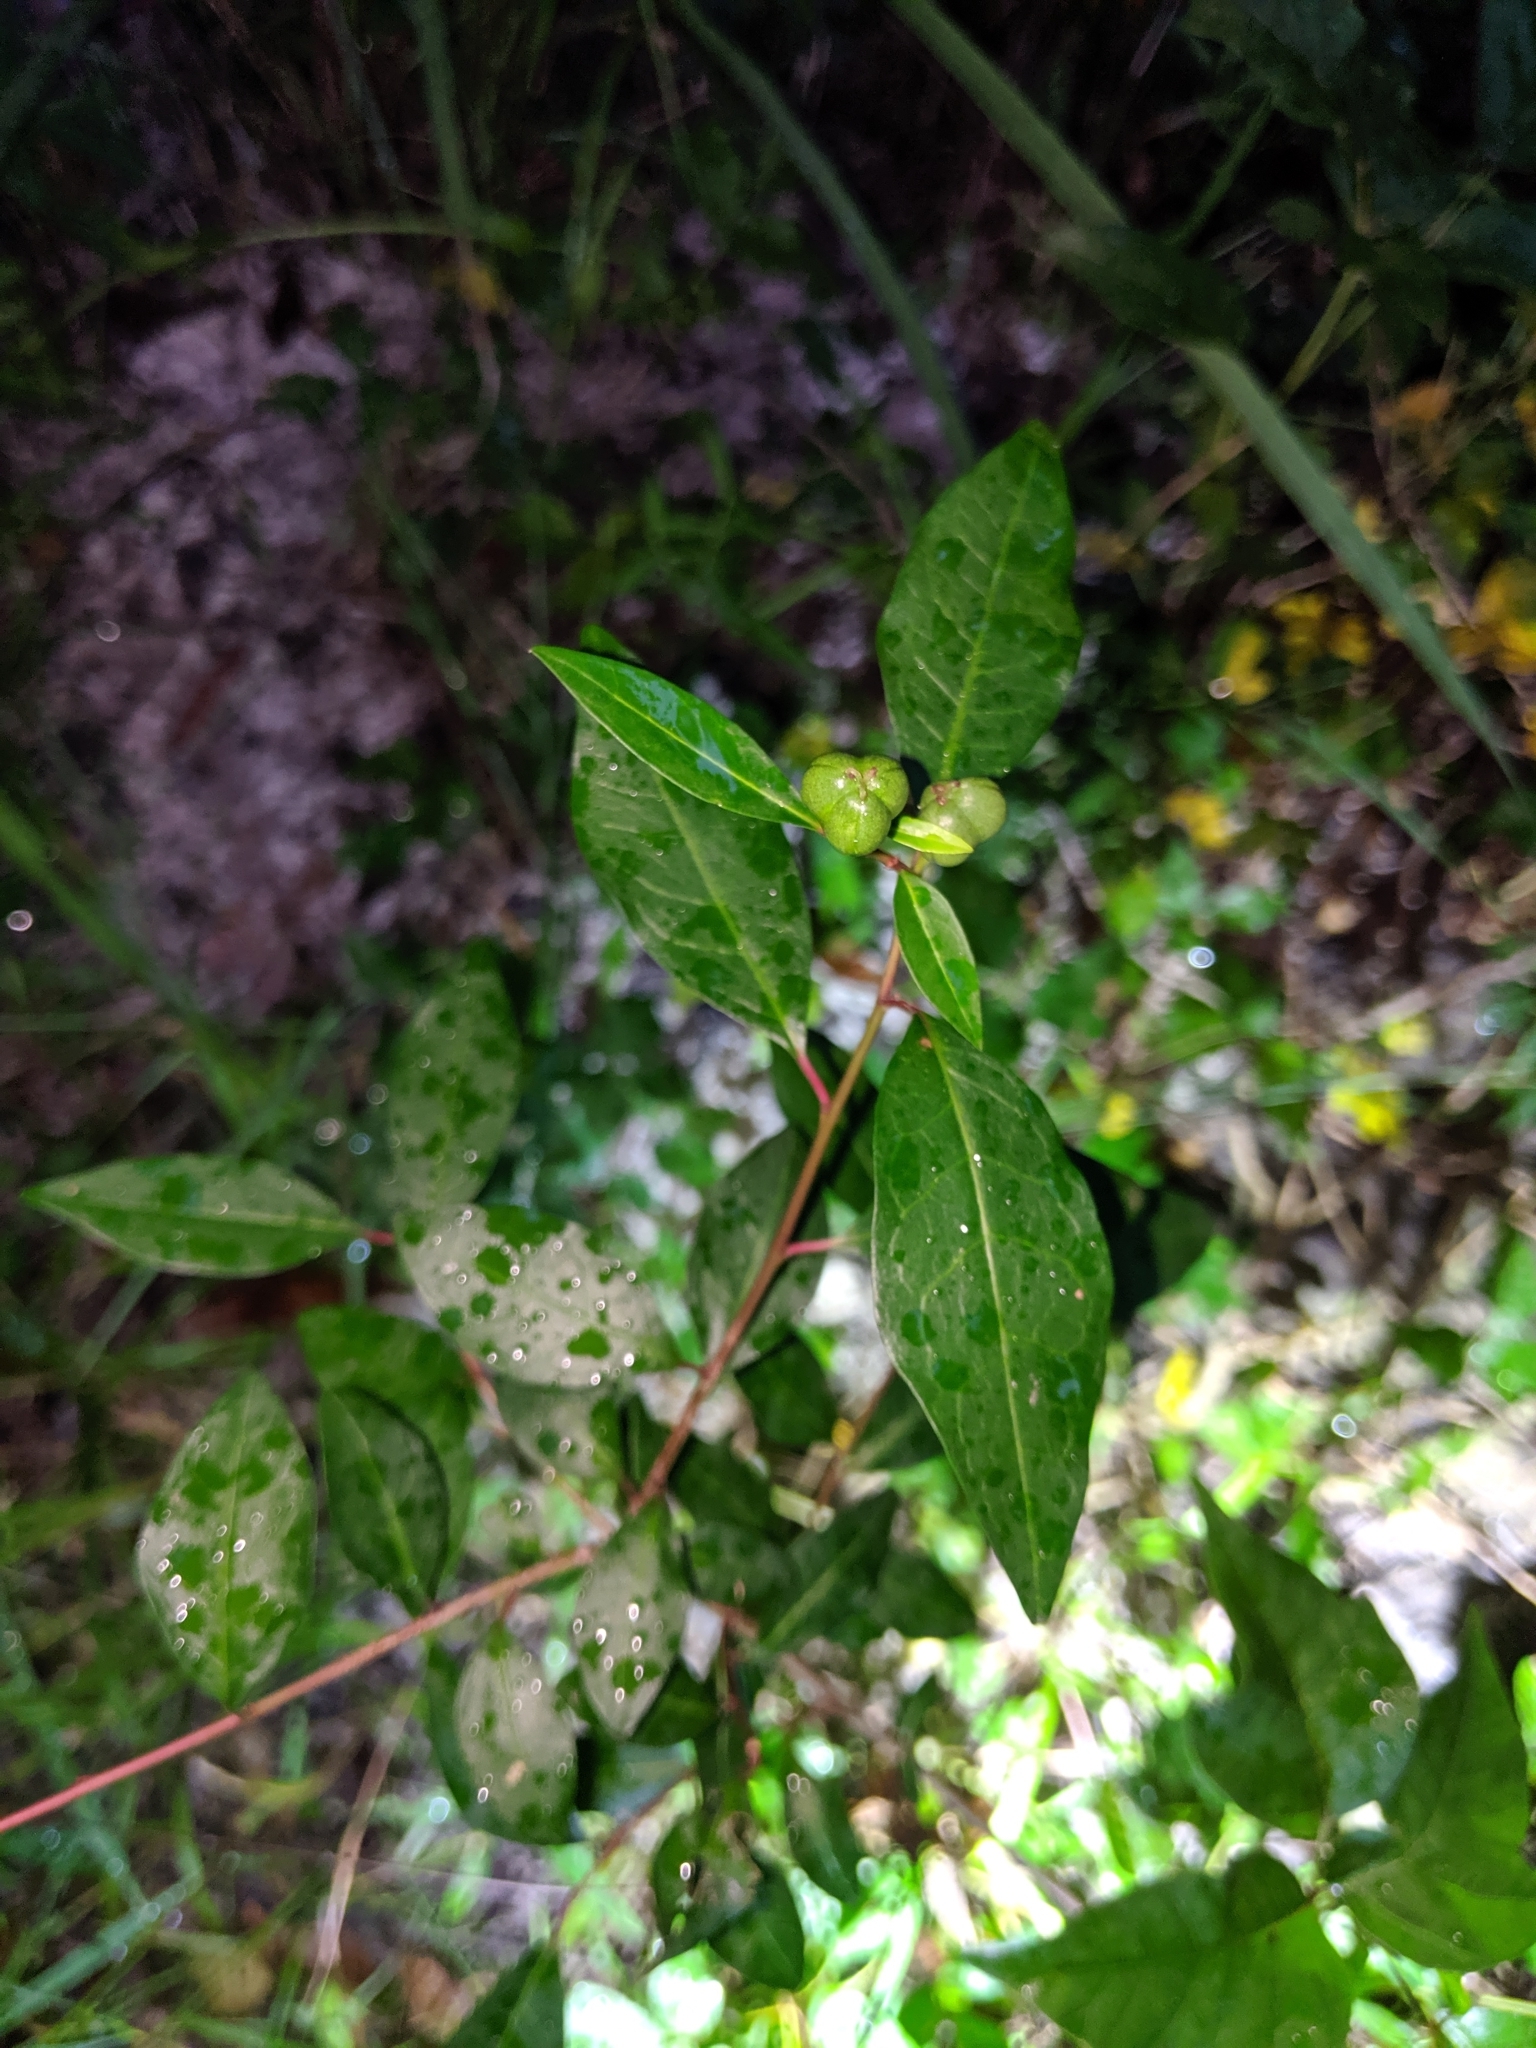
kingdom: Plantae
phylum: Tracheophyta
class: Magnoliopsida
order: Malpighiales
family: Euphorbiaceae
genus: Ditrysinia
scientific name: Ditrysinia fruticosa
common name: Gulf sebastian-bush
